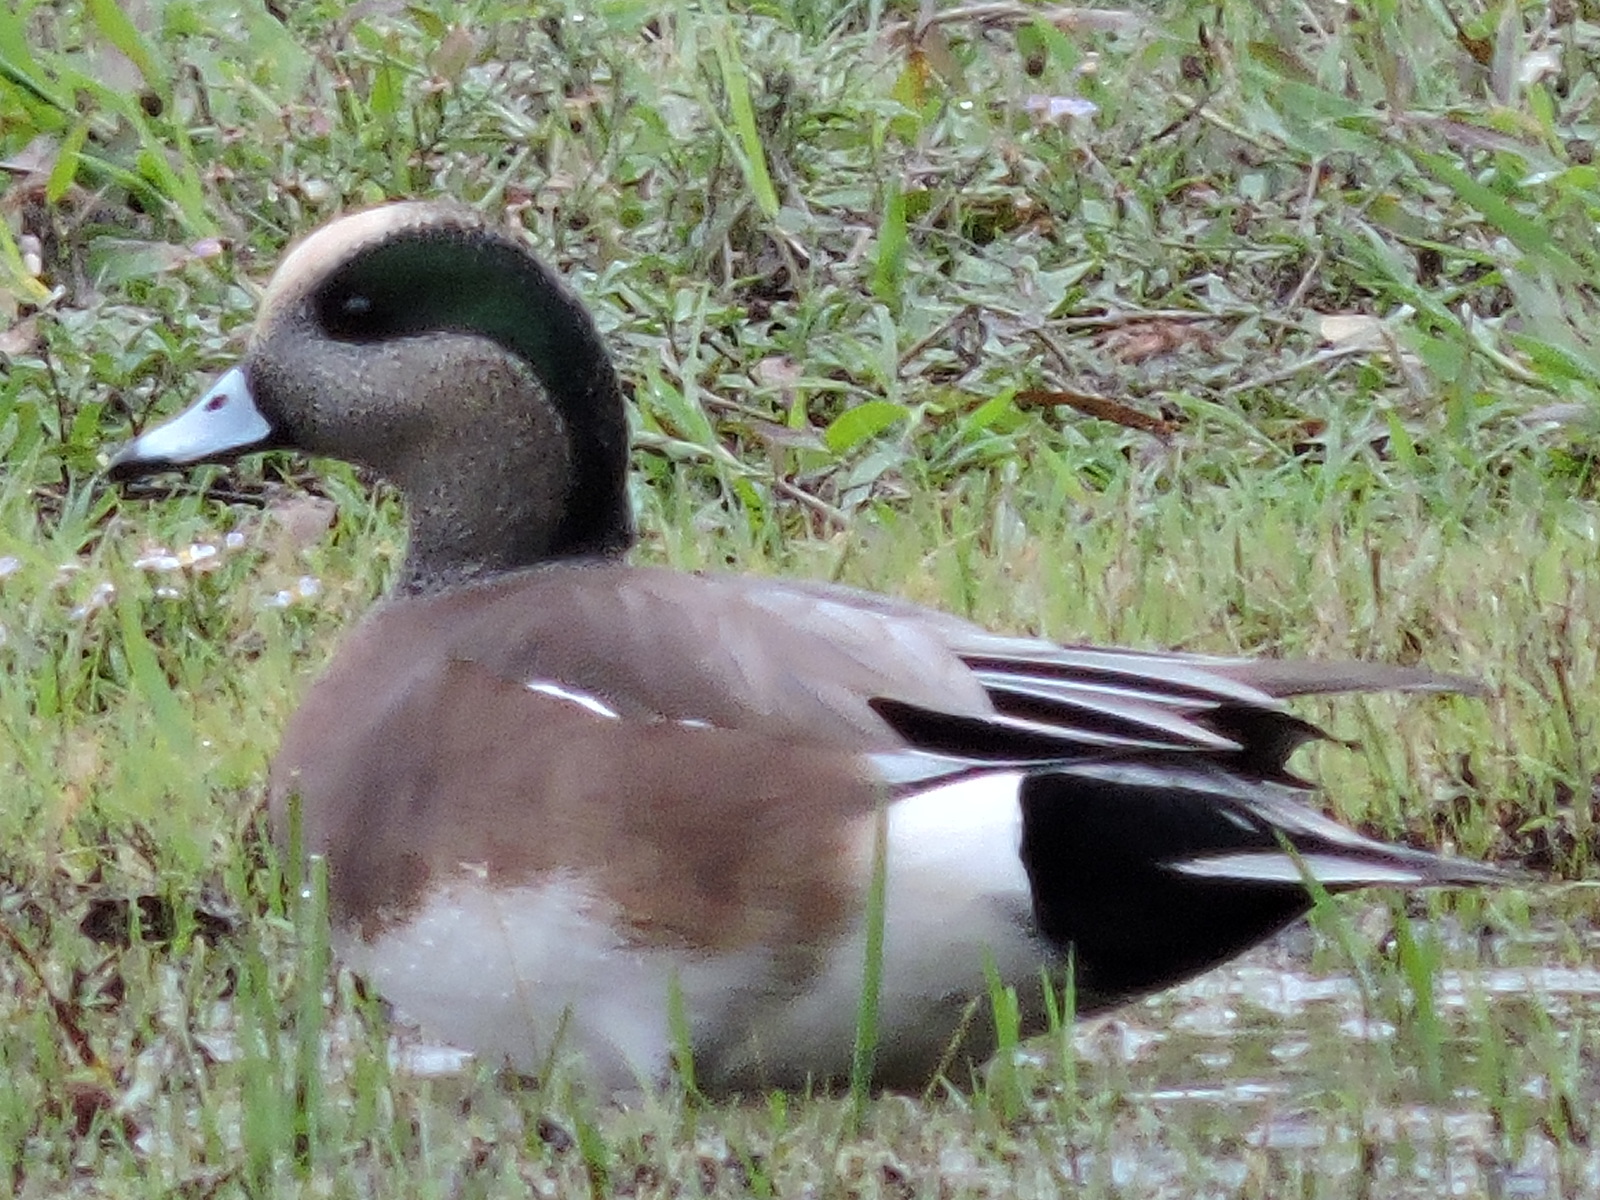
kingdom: Animalia
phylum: Chordata
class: Aves
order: Anseriformes
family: Anatidae
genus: Mareca
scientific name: Mareca americana
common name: American wigeon
